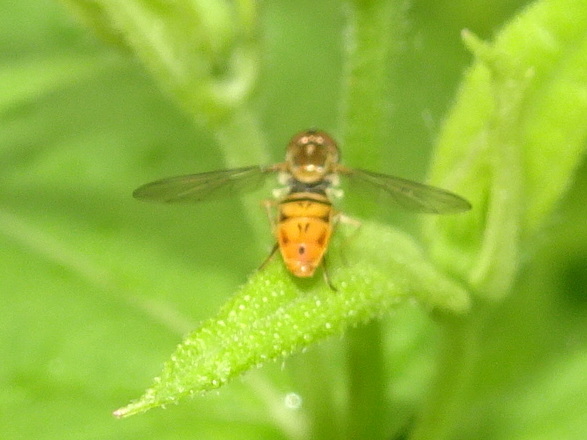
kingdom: Animalia
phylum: Arthropoda
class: Insecta
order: Diptera
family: Syrphidae
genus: Toxomerus
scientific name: Toxomerus marginatus
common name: Syrphid fly
